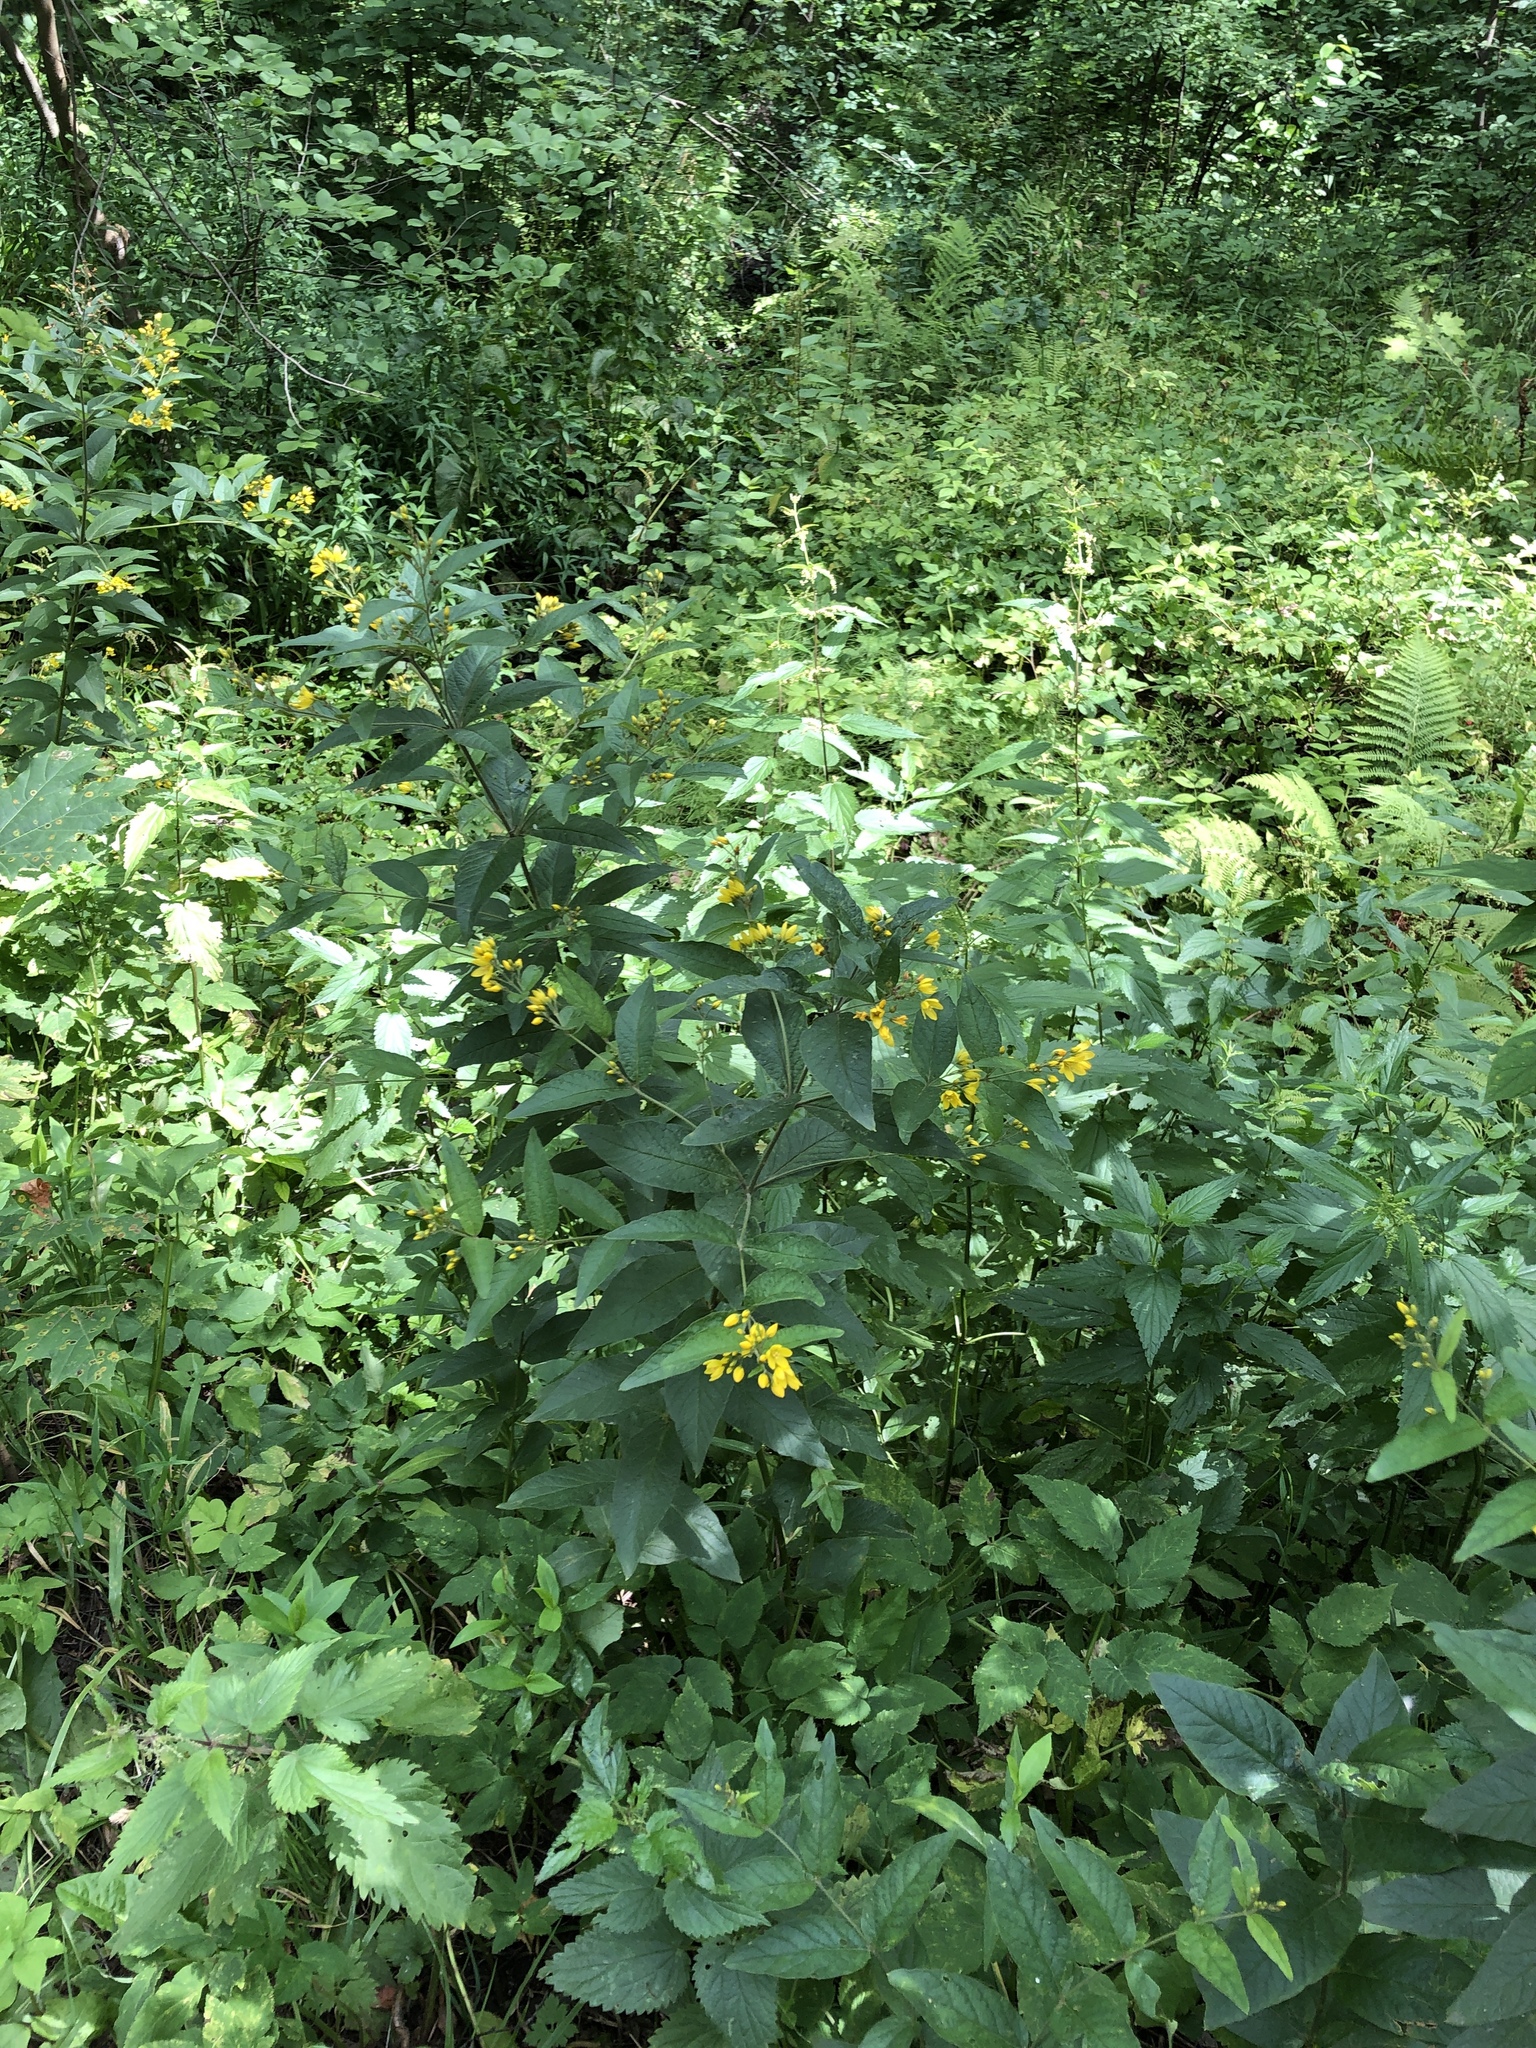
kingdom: Plantae
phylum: Tracheophyta
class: Magnoliopsida
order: Ericales
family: Primulaceae
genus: Lysimachia
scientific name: Lysimachia vulgaris
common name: Yellow loosestrife
